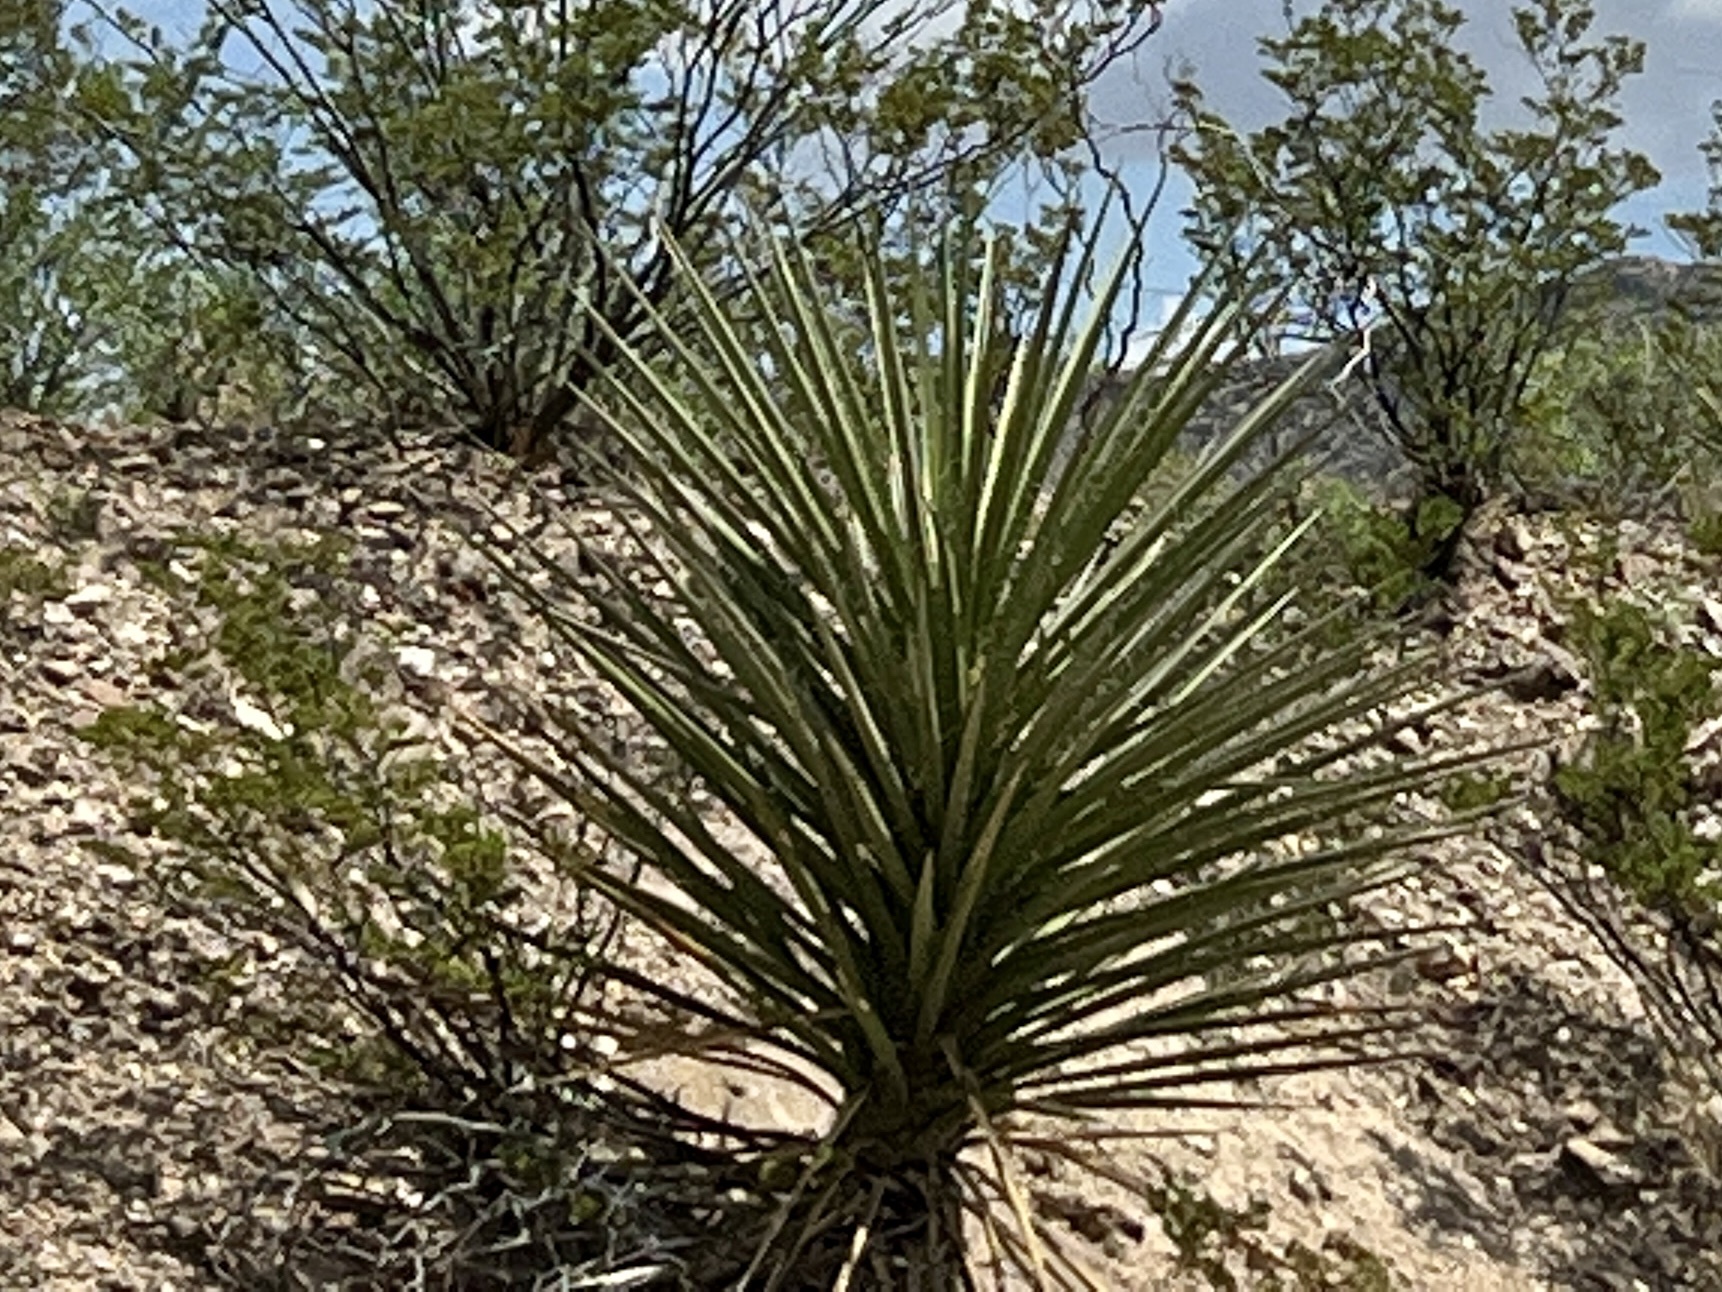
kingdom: Plantae
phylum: Tracheophyta
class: Liliopsida
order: Asparagales
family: Asparagaceae
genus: Yucca
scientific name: Yucca treculiana
